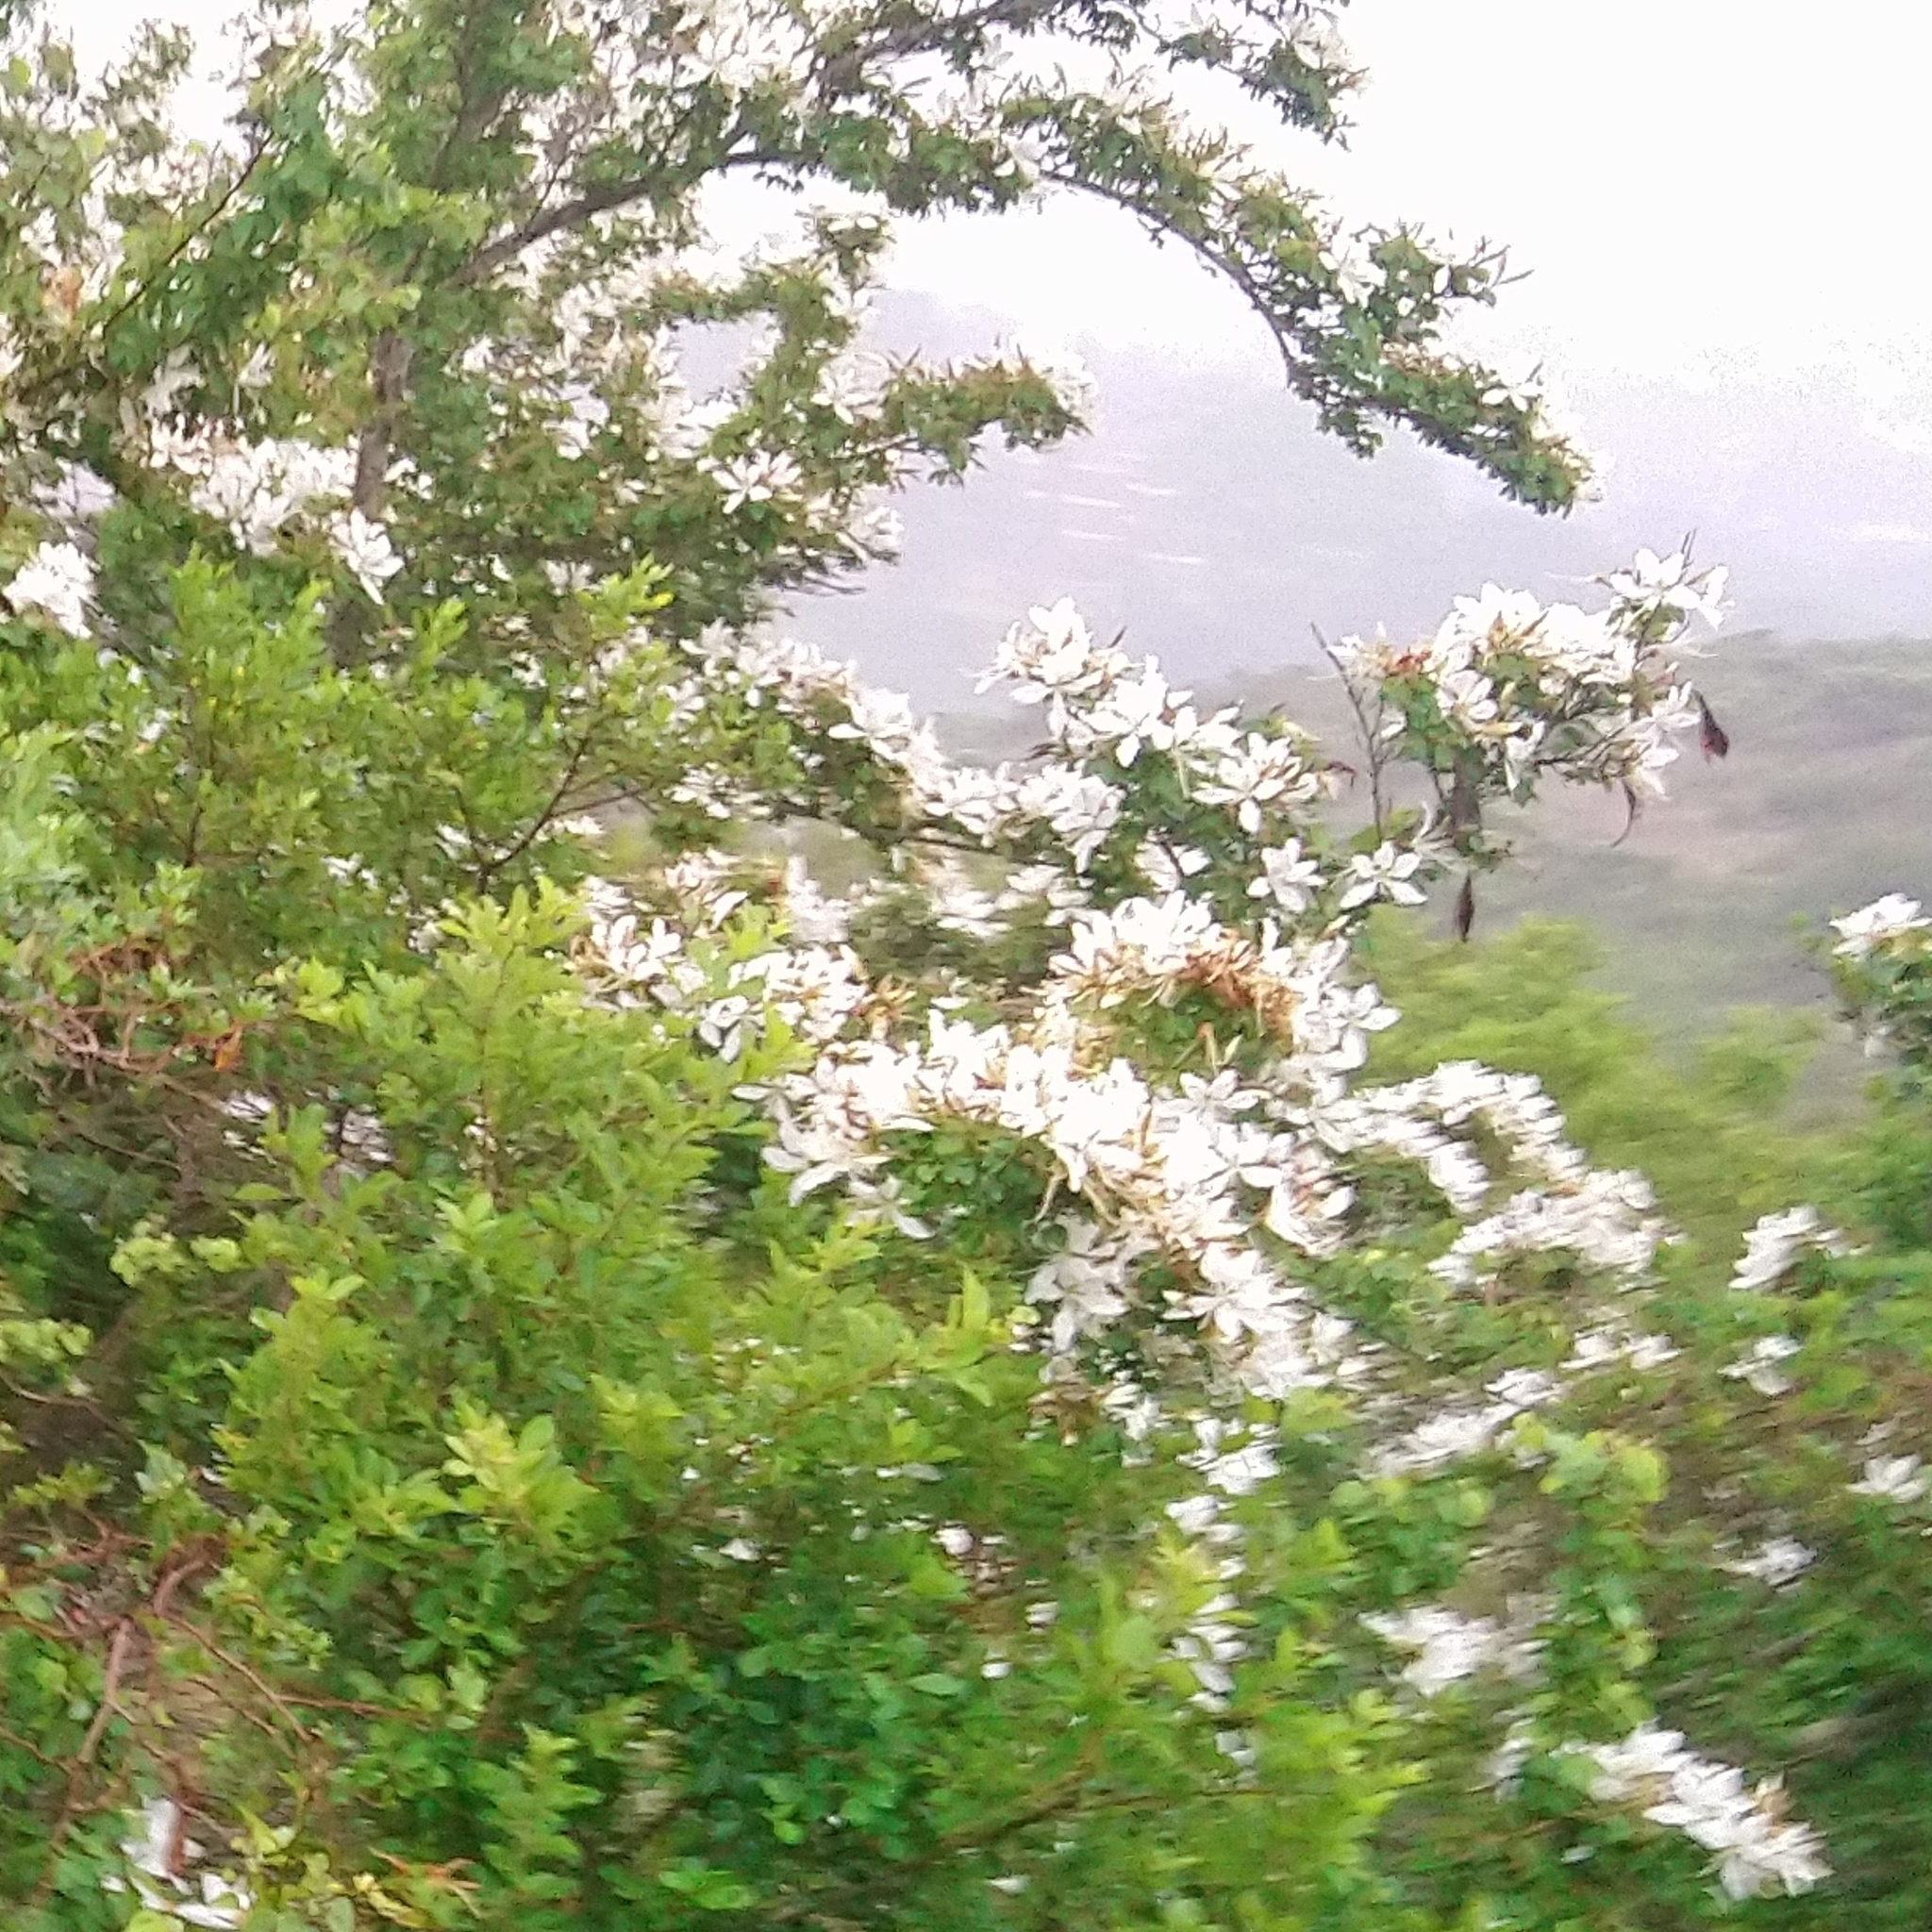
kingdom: Plantae
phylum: Tracheophyta
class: Magnoliopsida
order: Fabales
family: Fabaceae
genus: Bauhinia
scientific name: Bauhinia bowkeri
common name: Kei bauhinia
